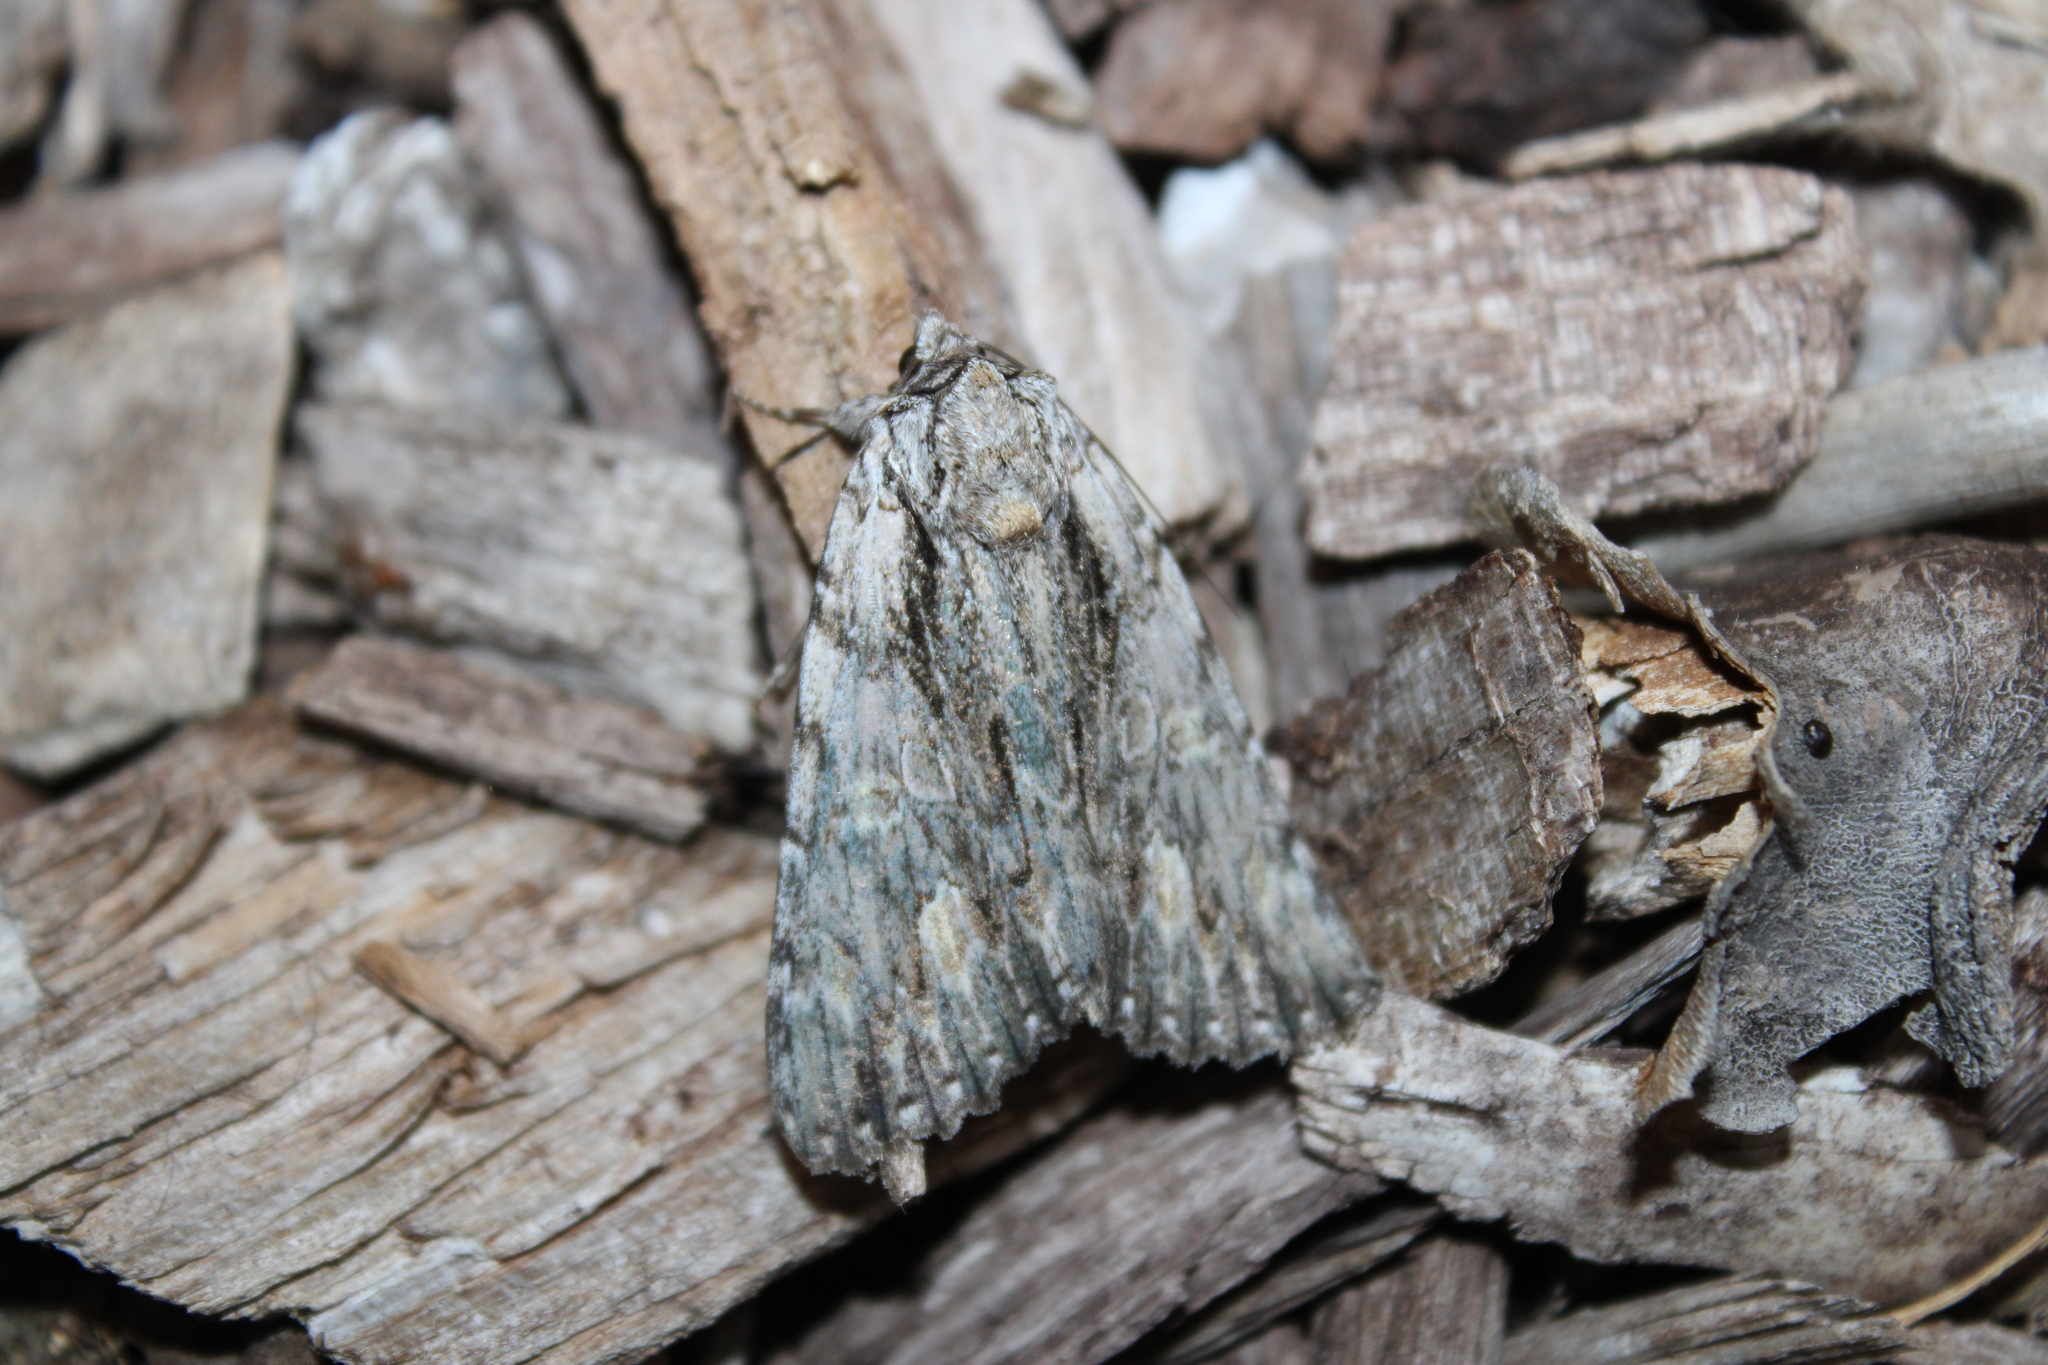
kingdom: Animalia
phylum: Arthropoda
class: Insecta
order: Lepidoptera
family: Erebidae
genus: Catocala
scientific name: Catocala coccinata
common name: Scarlet underwing
